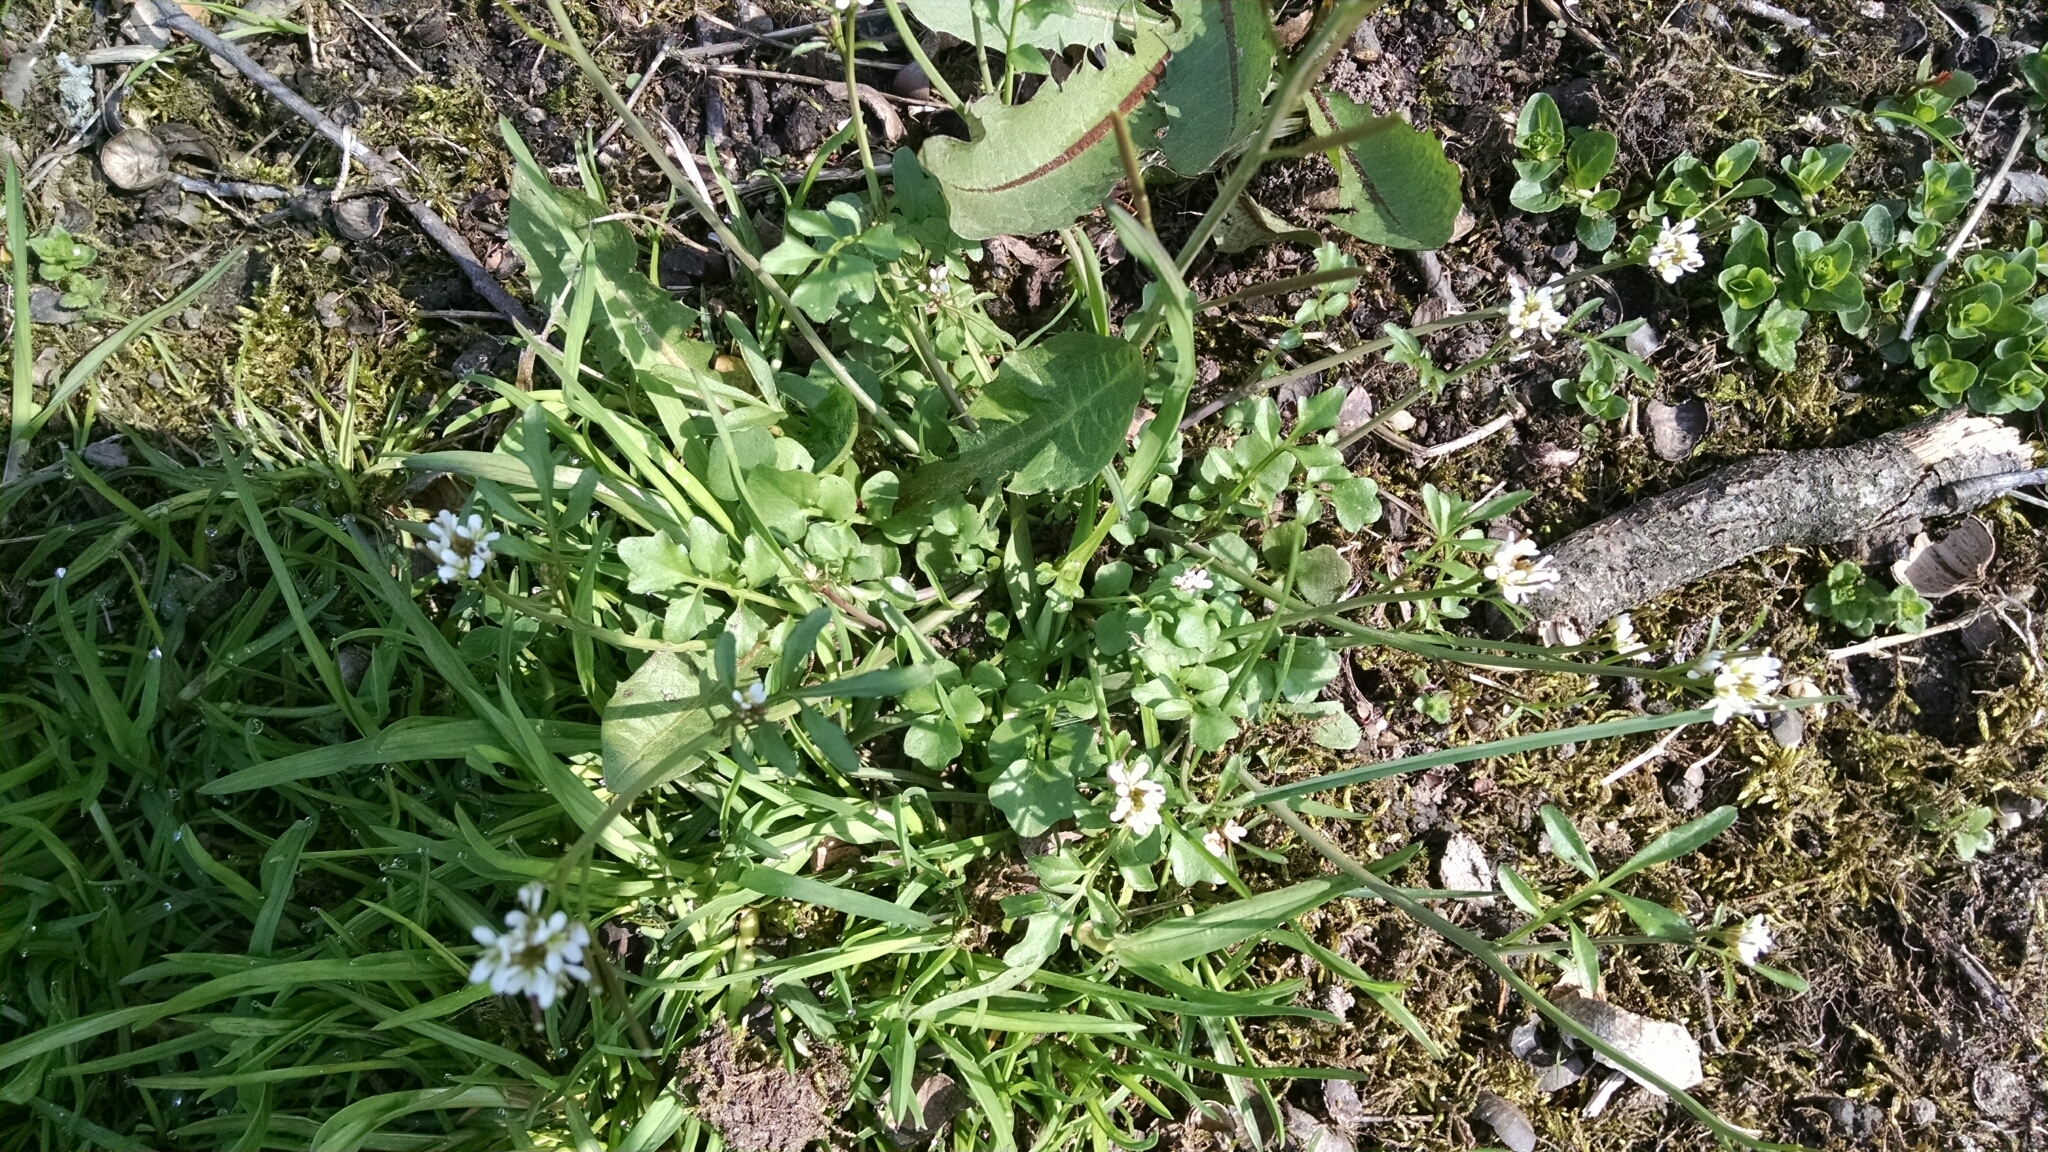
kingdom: Plantae
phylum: Tracheophyta
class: Magnoliopsida
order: Brassicales
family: Brassicaceae
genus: Cardamine
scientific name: Cardamine hirsuta
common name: Hairy bittercress
